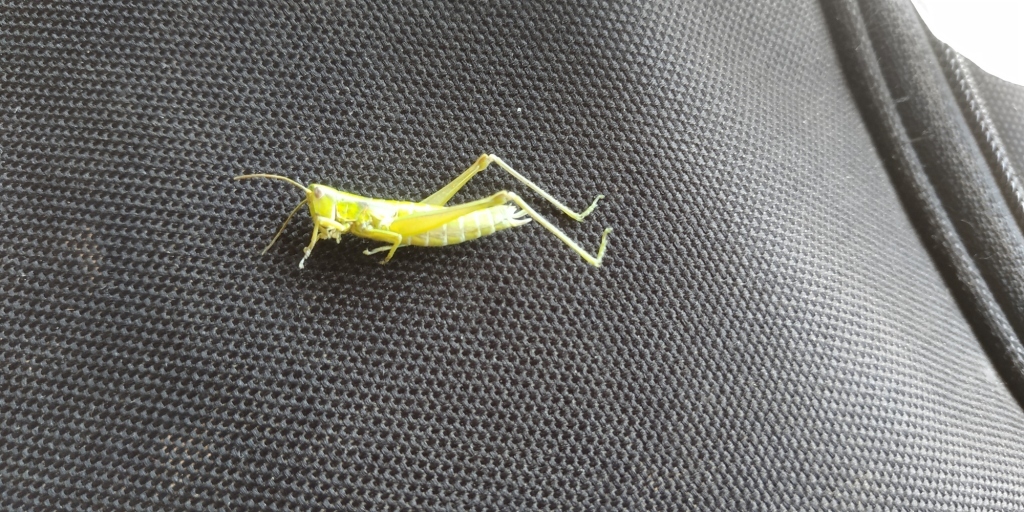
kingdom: Animalia
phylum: Arthropoda
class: Insecta
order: Orthoptera
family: Acrididae
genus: Euthystira
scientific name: Euthystira brachyptera
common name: Small gold grasshopper
